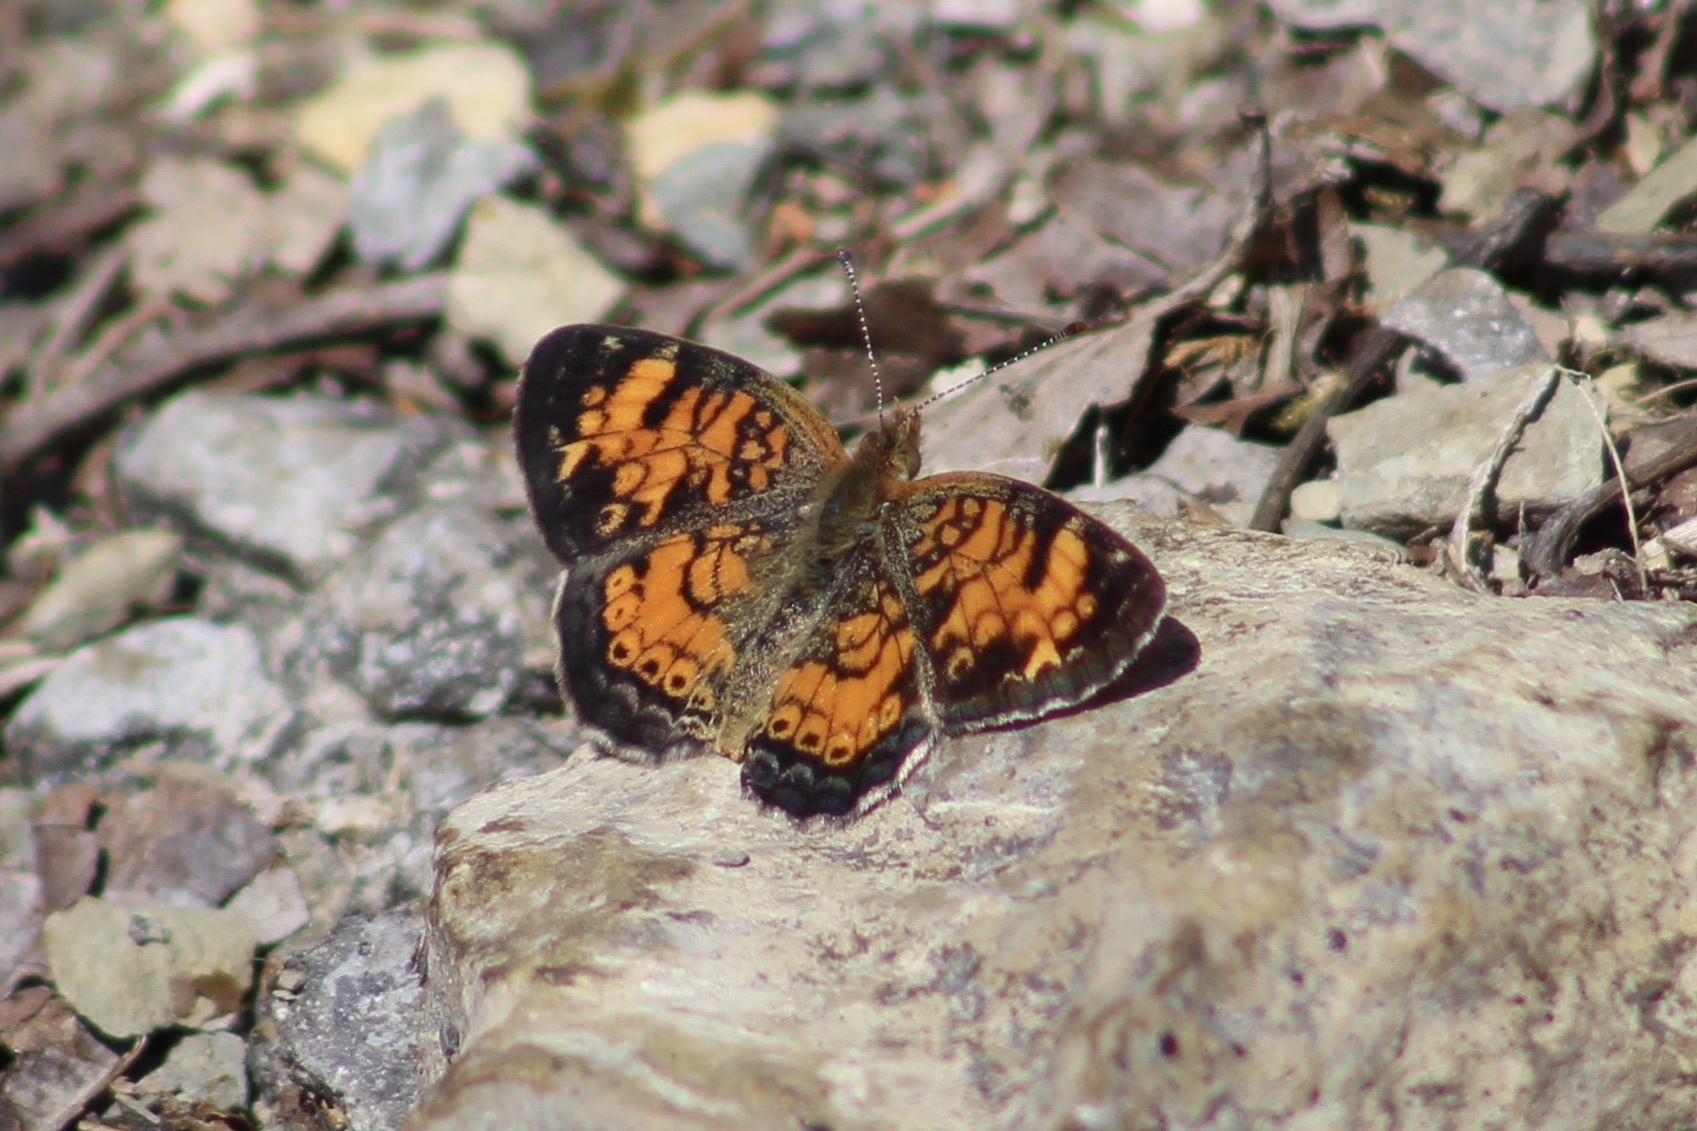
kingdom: Animalia
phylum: Arthropoda
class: Insecta
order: Lepidoptera
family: Nymphalidae
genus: Phyciodes
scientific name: Phyciodes tharos
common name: Pearl crescent
